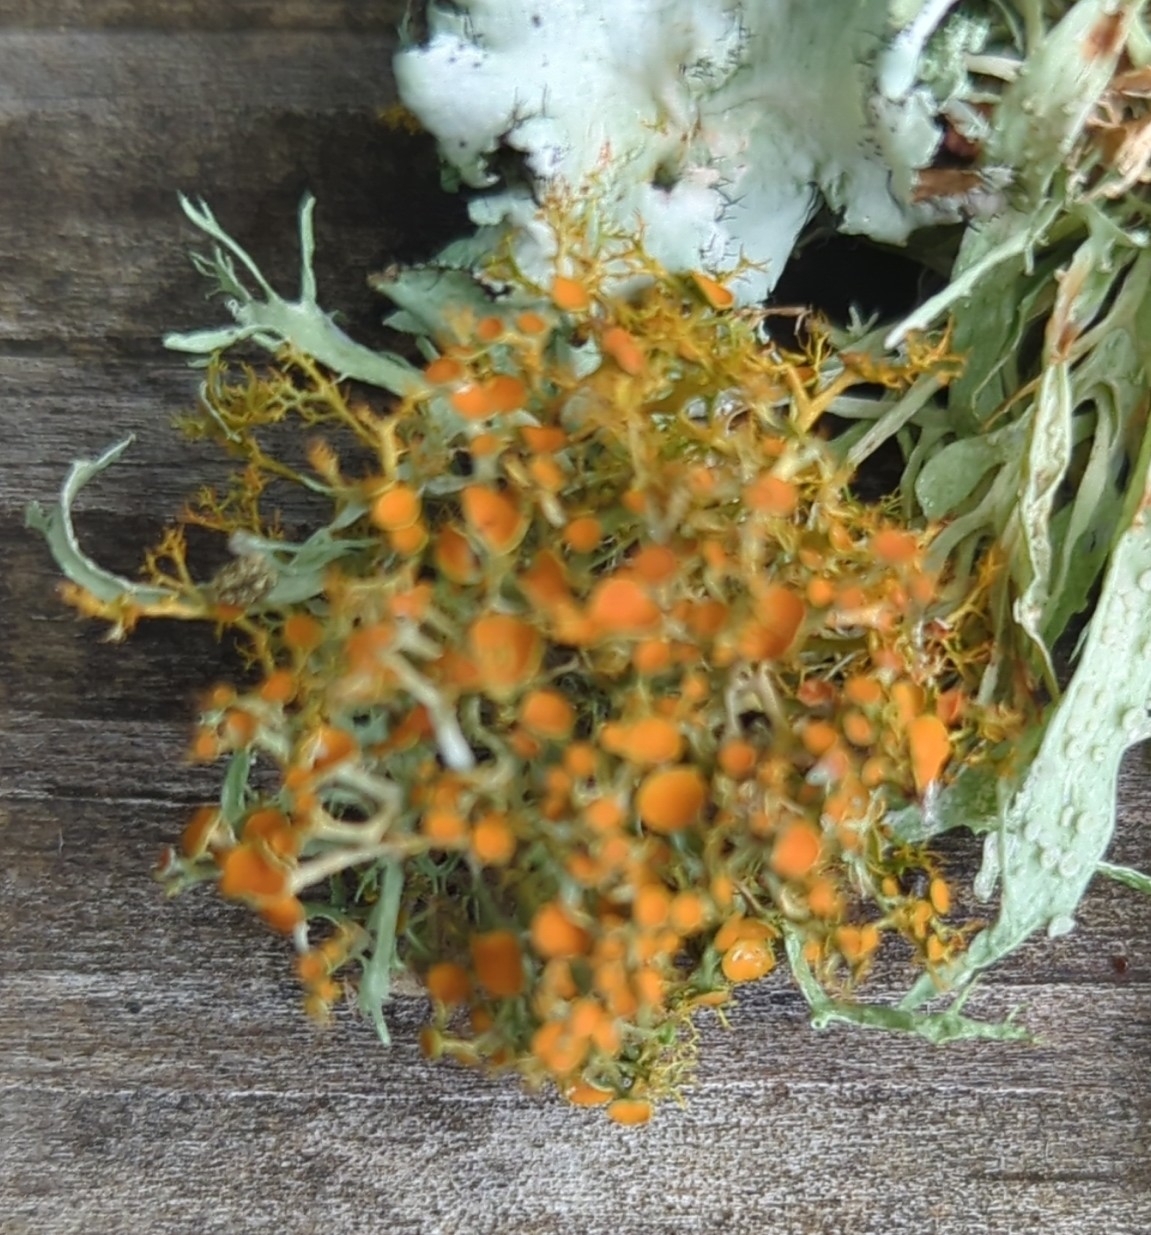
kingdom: Fungi
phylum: Ascomycota
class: Lecanoromycetes
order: Teloschistales
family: Teloschistaceae
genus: Teloschistes
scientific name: Teloschistes exilis
